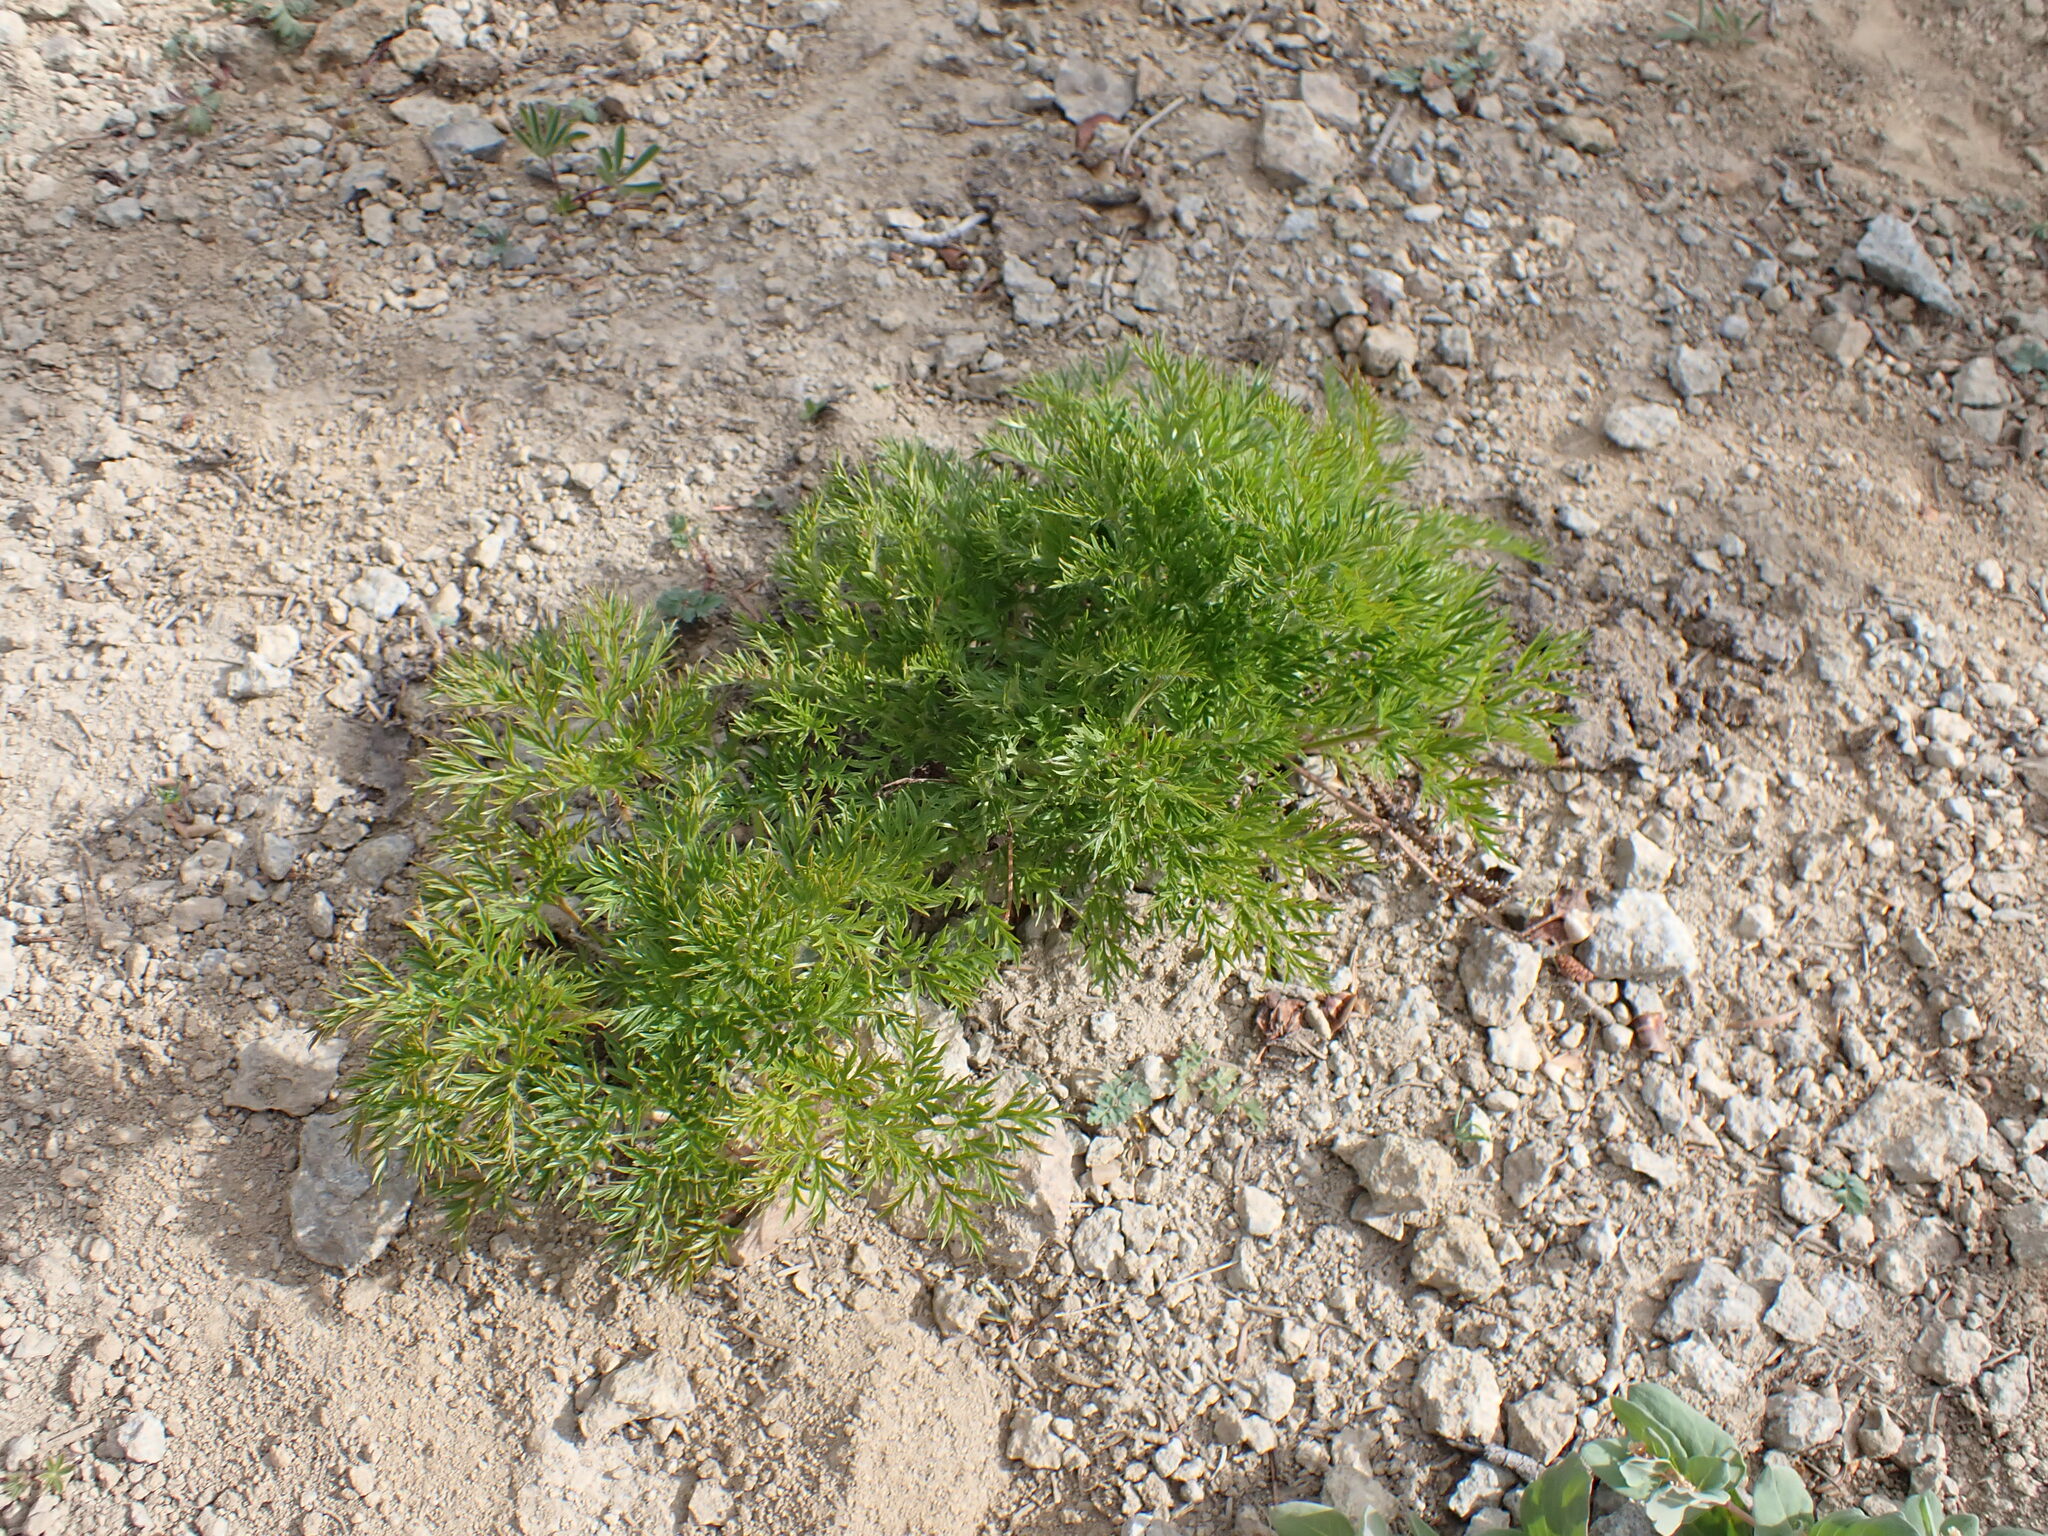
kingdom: Plantae
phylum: Tracheophyta
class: Magnoliopsida
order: Ranunculales
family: Ranunculaceae
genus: Pulsatilla
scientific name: Pulsatilla occidentalis
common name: Mountain pasqueflower
